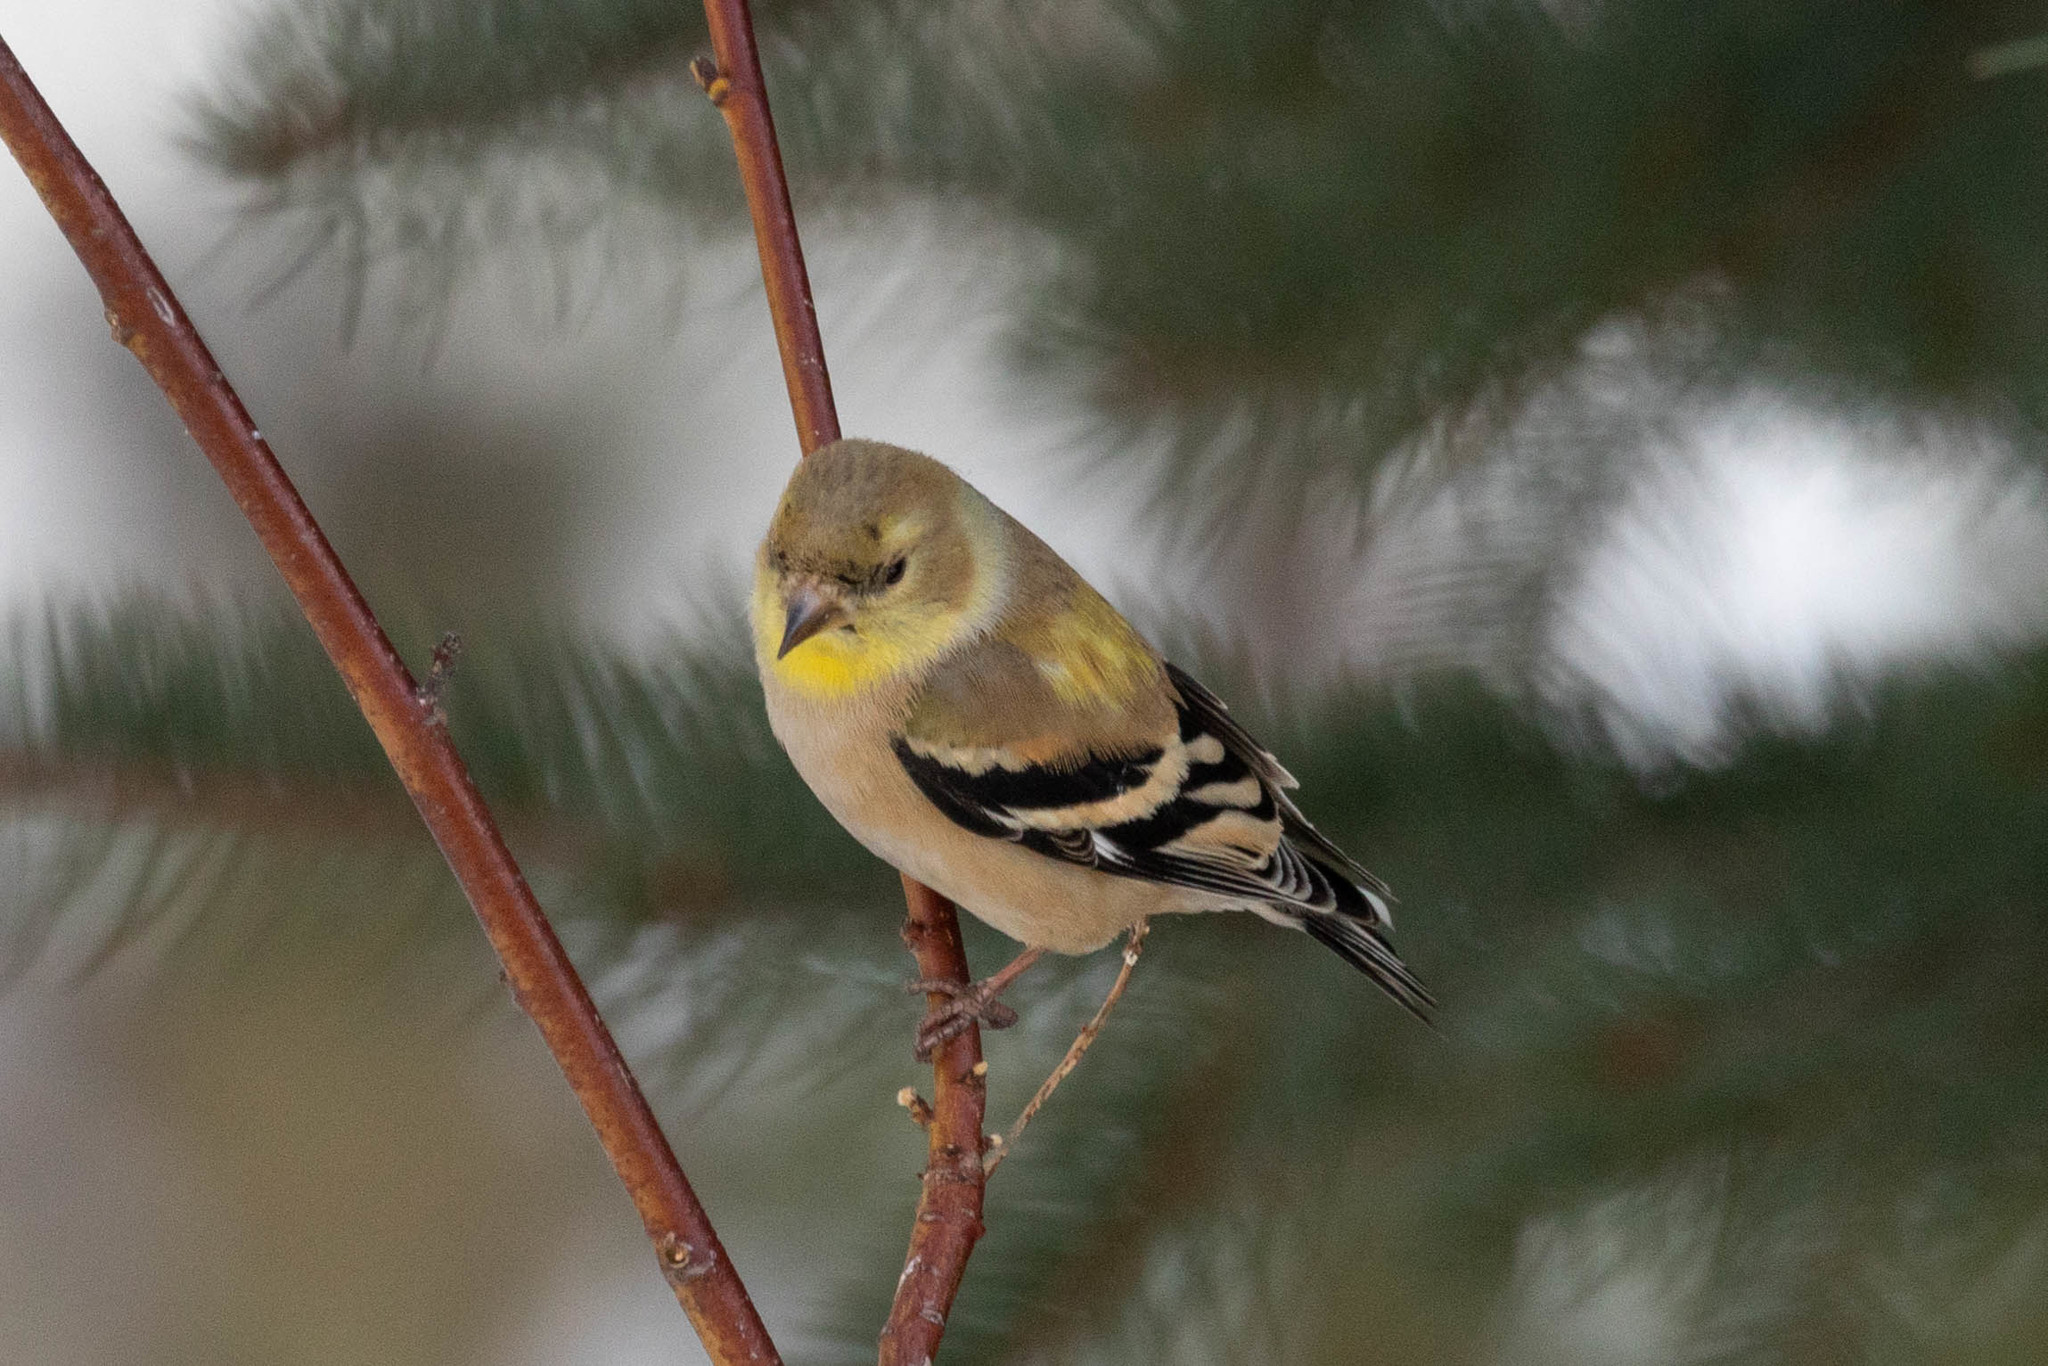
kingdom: Animalia
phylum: Chordata
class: Aves
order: Passeriformes
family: Fringillidae
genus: Spinus
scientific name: Spinus tristis
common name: American goldfinch
